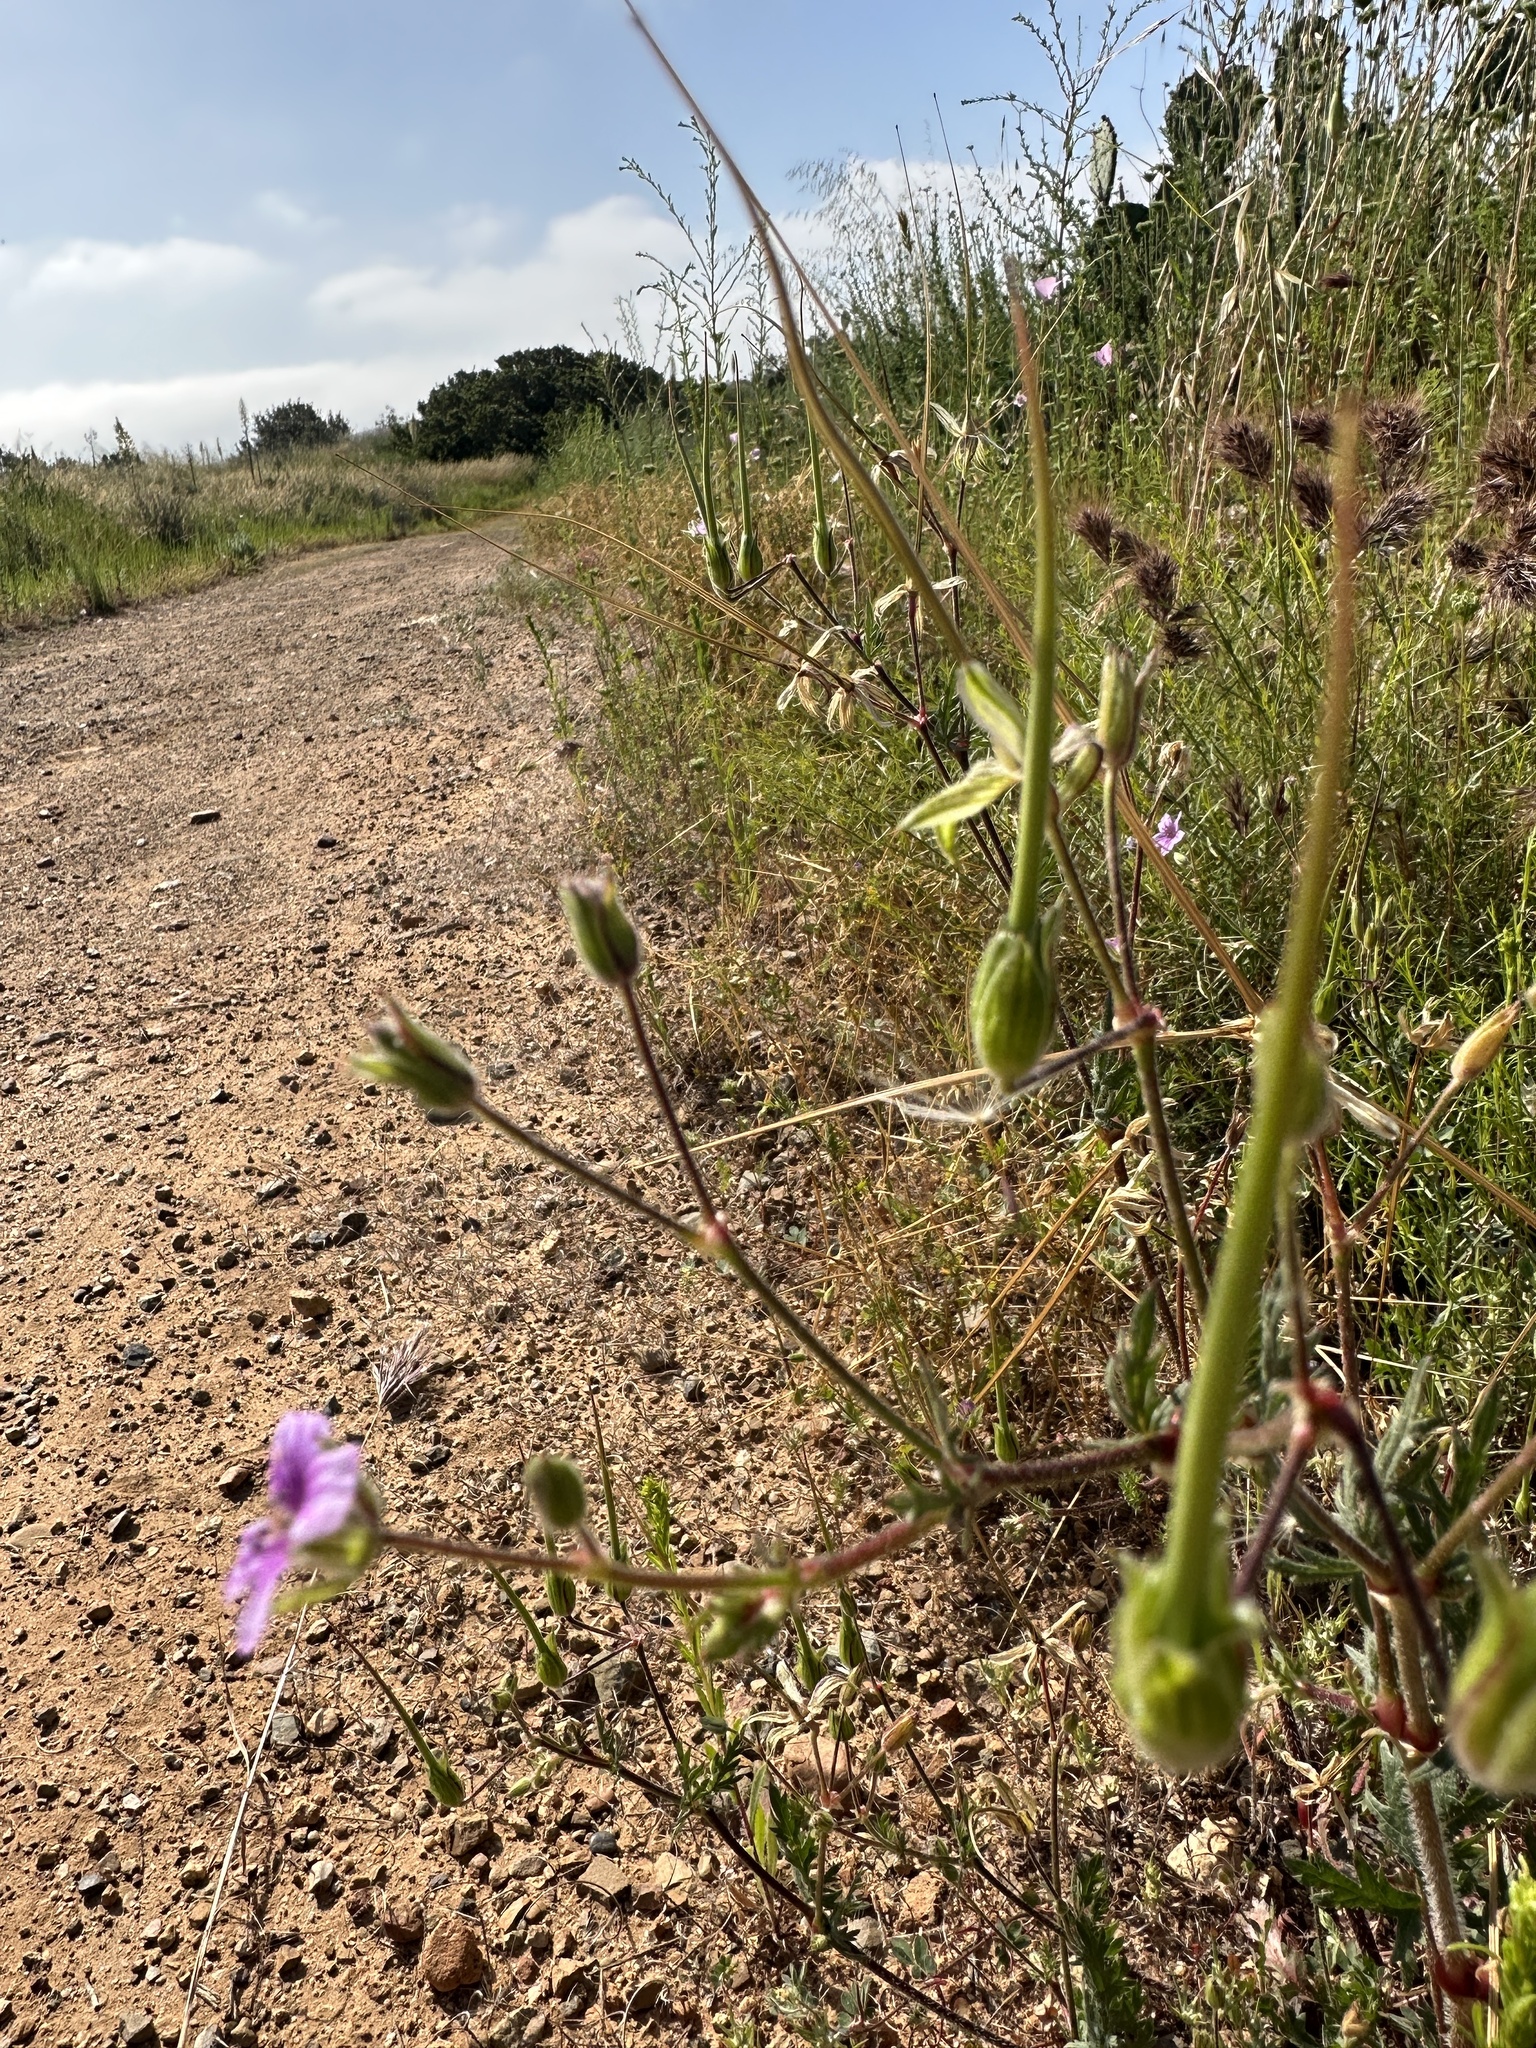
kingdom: Plantae
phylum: Tracheophyta
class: Magnoliopsida
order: Geraniales
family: Geraniaceae
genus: Erodium
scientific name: Erodium botrys
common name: Mediterranean stork's-bill
